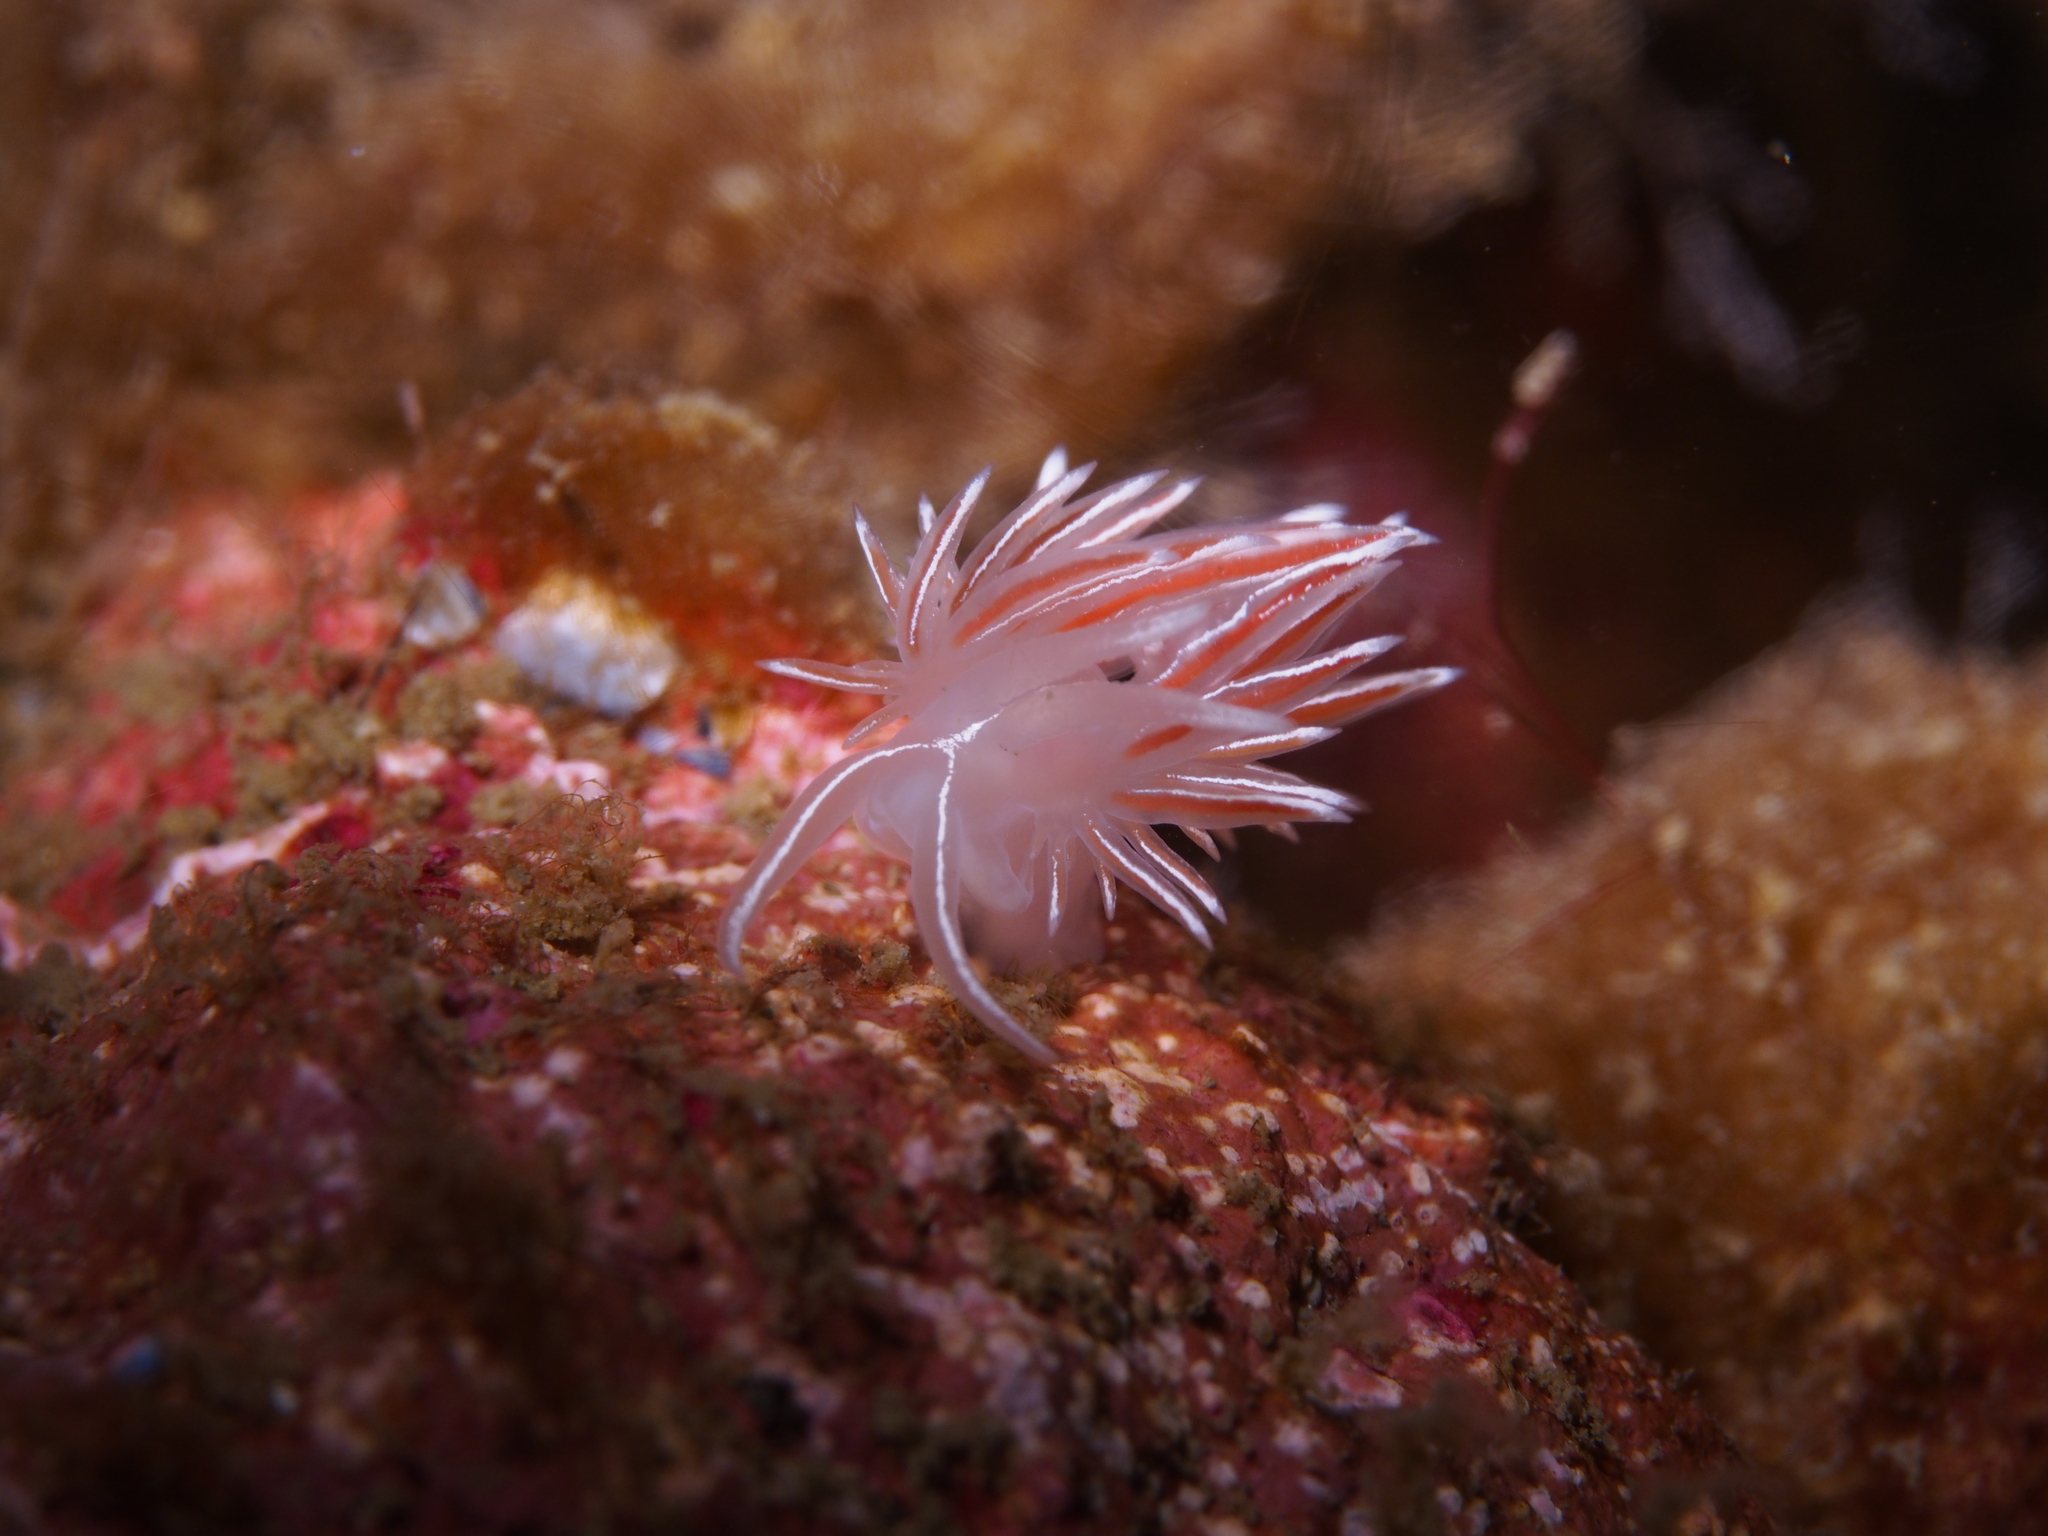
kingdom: Animalia
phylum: Mollusca
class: Gastropoda
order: Nudibranchia
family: Coryphellidae
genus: Coryphella
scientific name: Coryphella lineata
